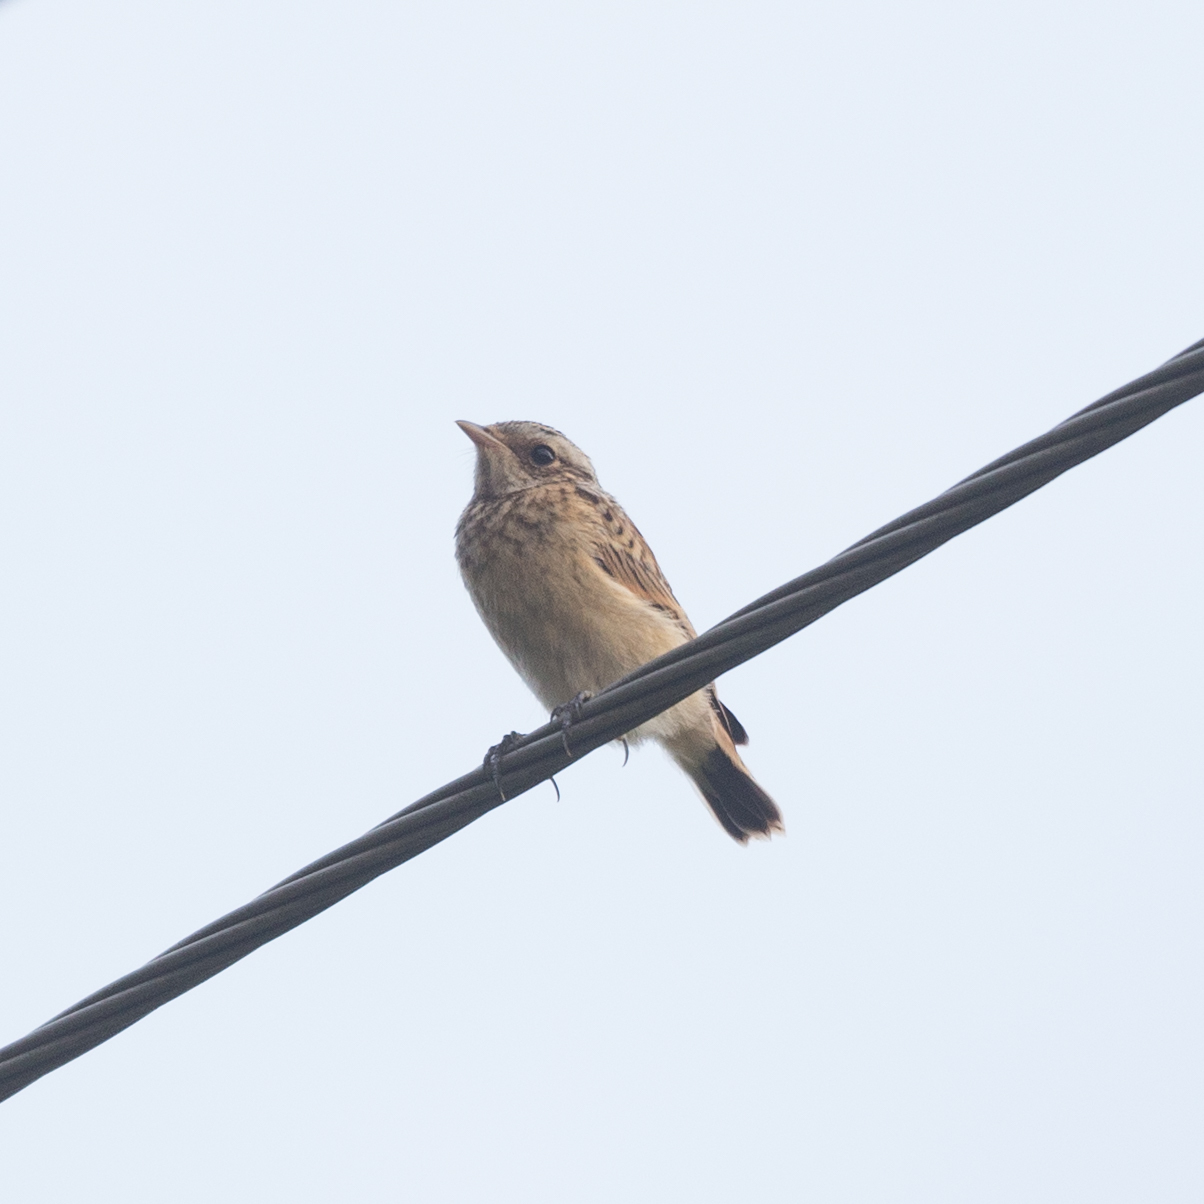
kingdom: Animalia
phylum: Chordata
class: Aves
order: Passeriformes
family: Muscicapidae
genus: Saxicola
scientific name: Saxicola rubetra
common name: Whinchat
